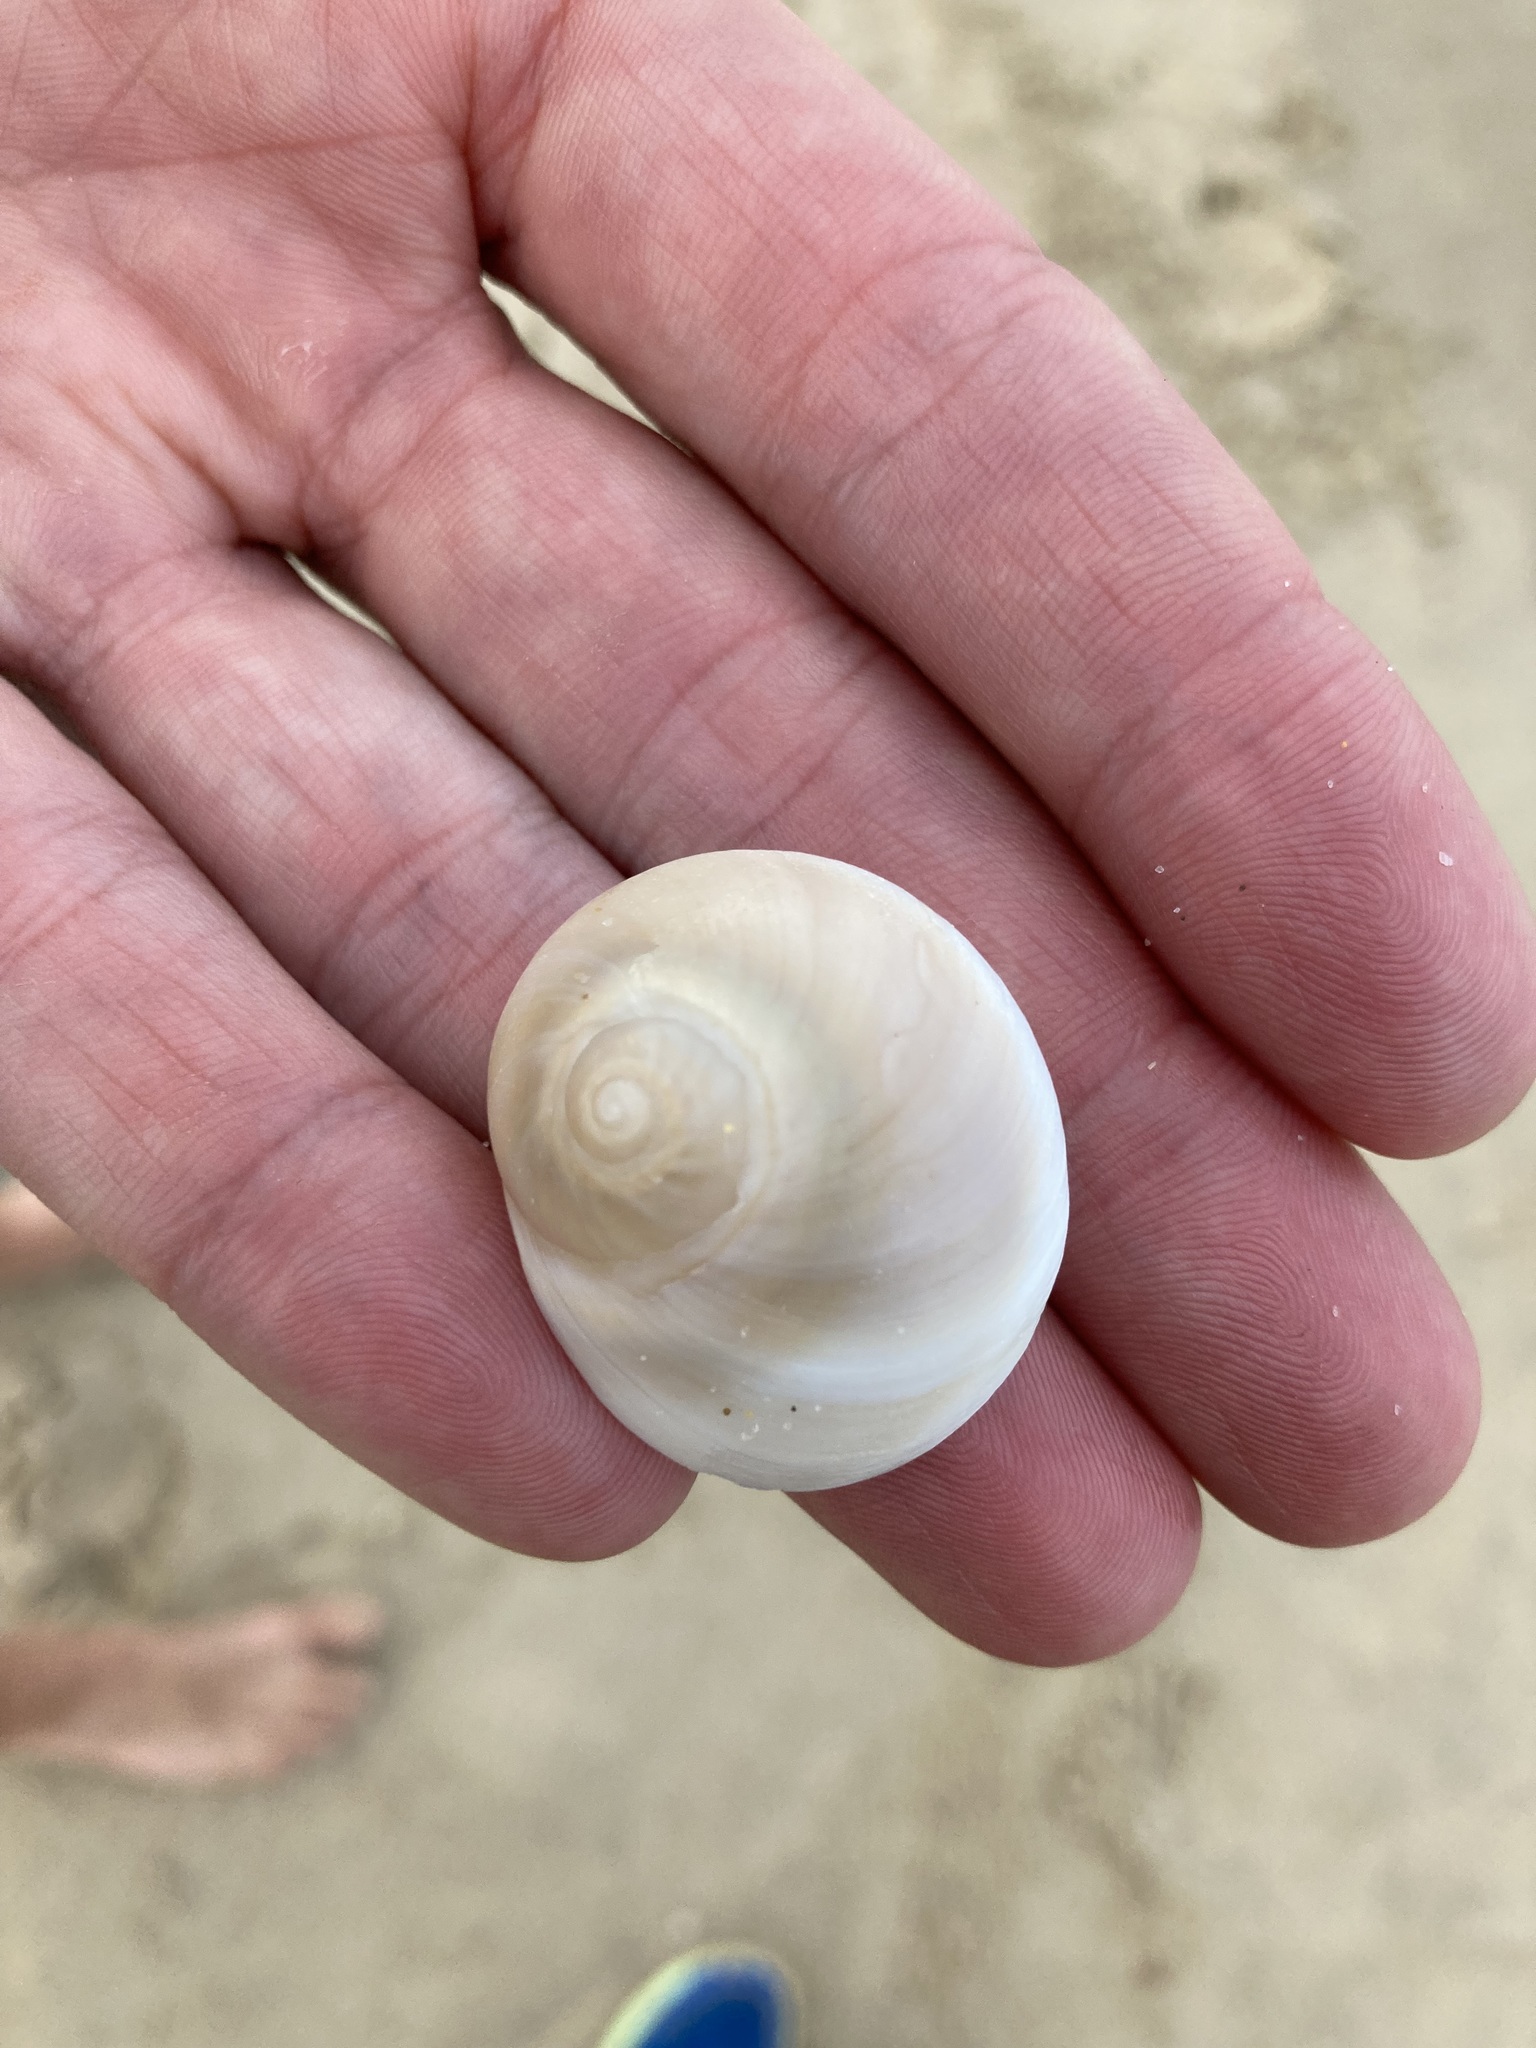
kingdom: Animalia
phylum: Mollusca
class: Gastropoda
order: Littorinimorpha
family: Naticidae
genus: Conuber
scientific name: Conuber incei
